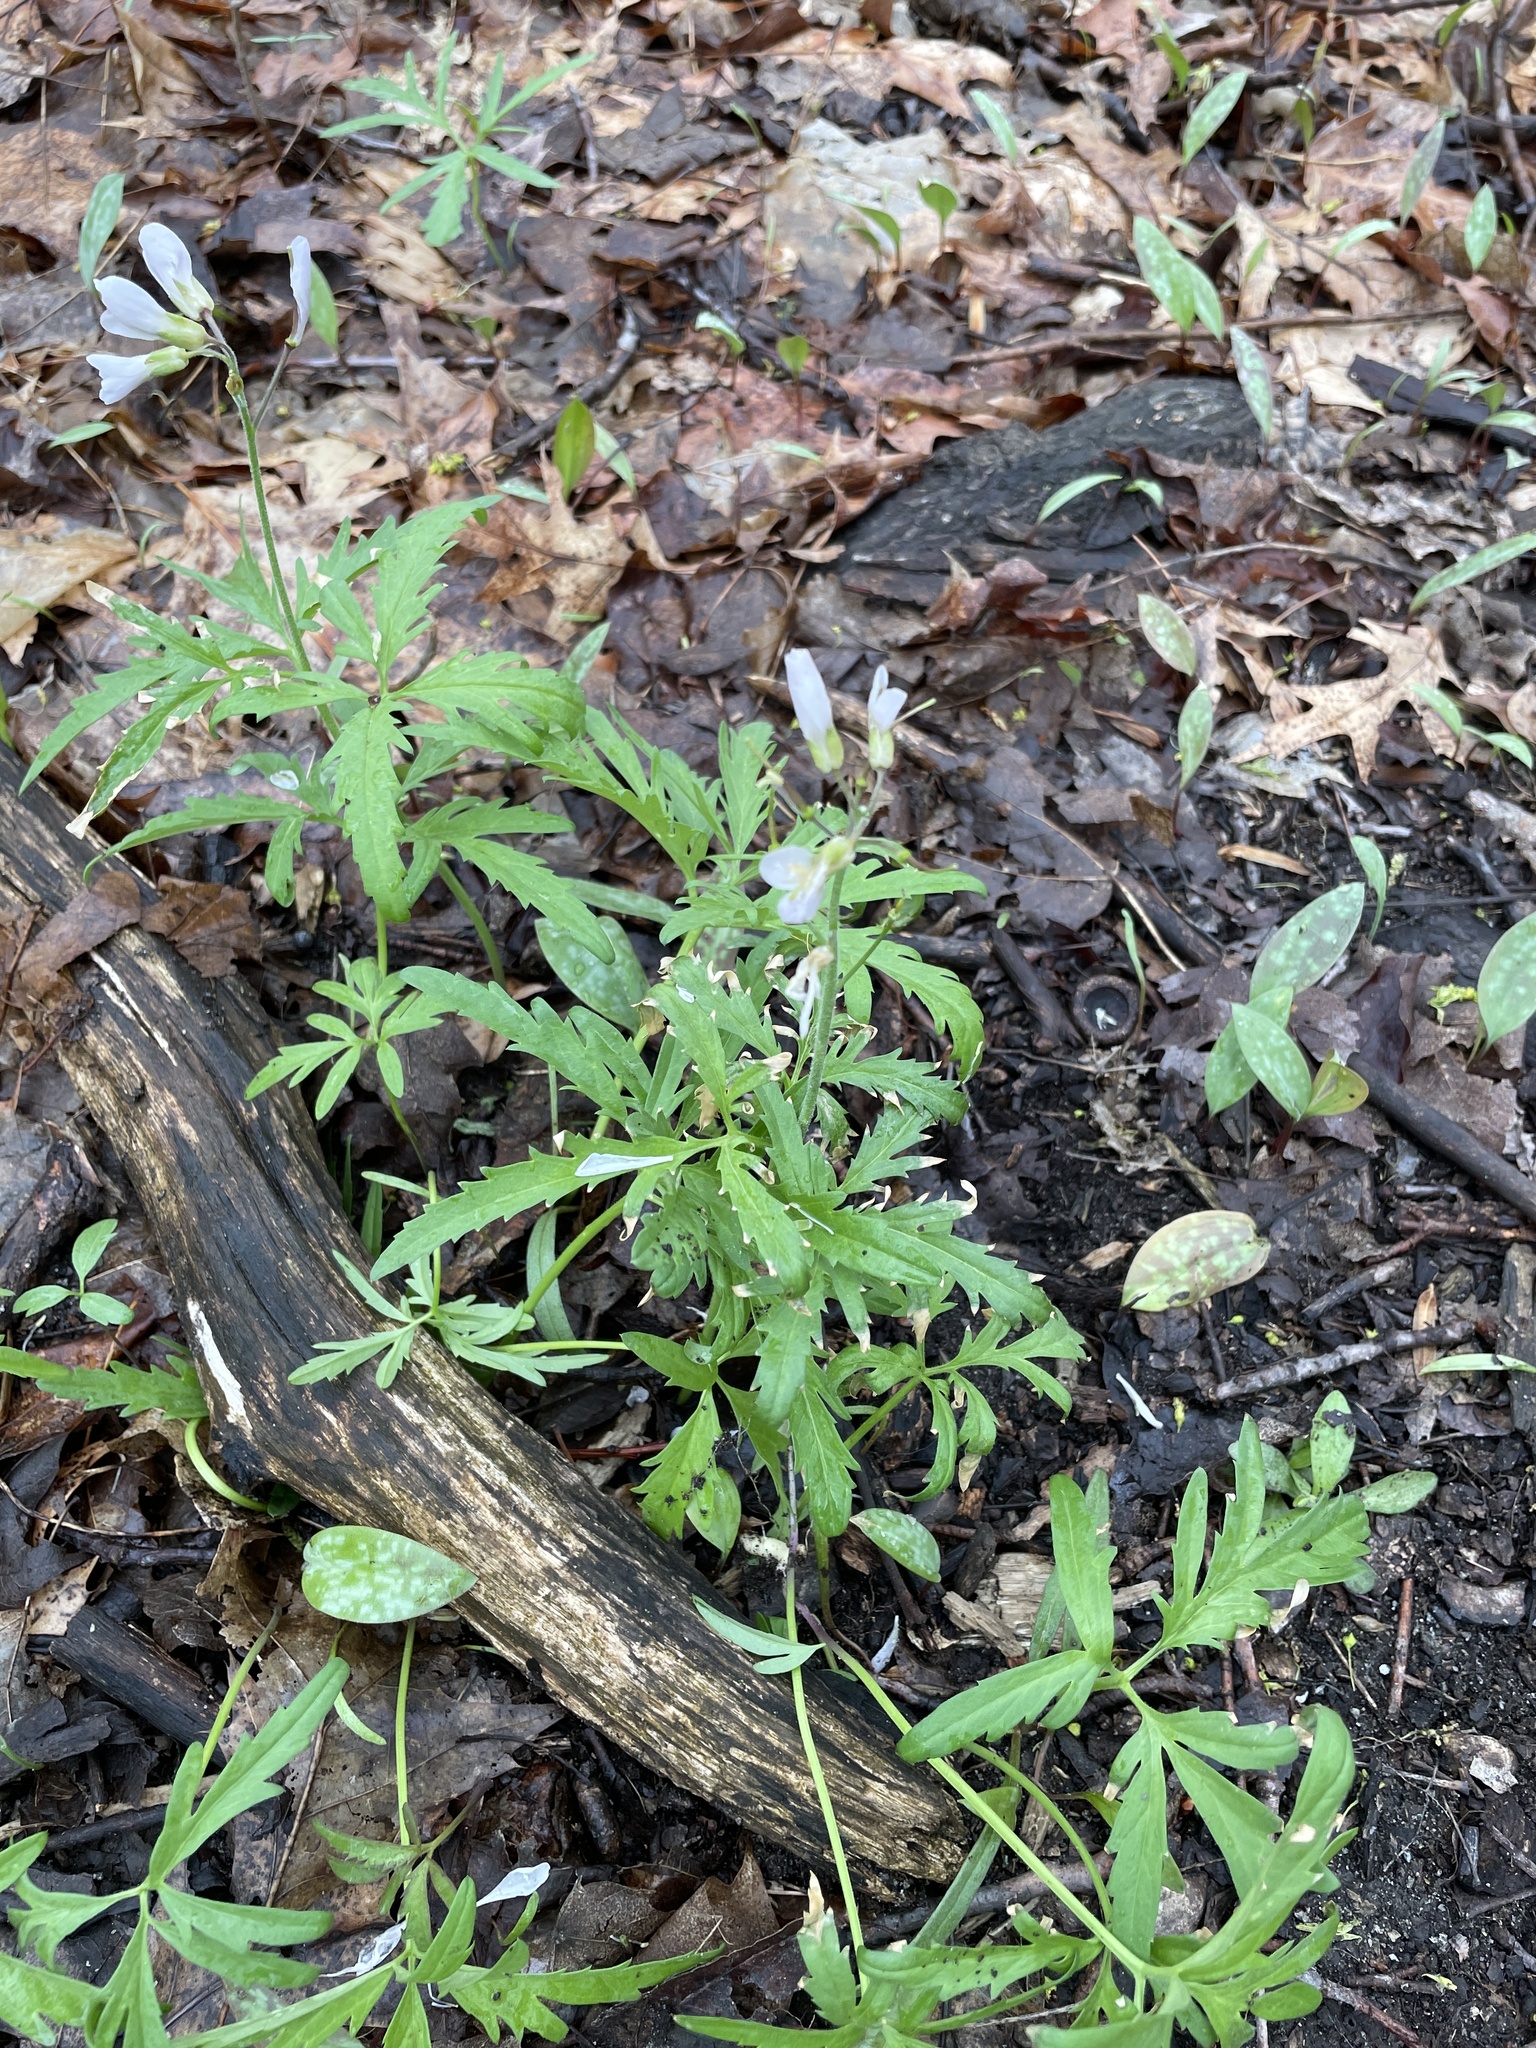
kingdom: Plantae
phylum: Tracheophyta
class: Magnoliopsida
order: Brassicales
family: Brassicaceae
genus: Cardamine
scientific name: Cardamine concatenata
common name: Cut-leaf toothcup
